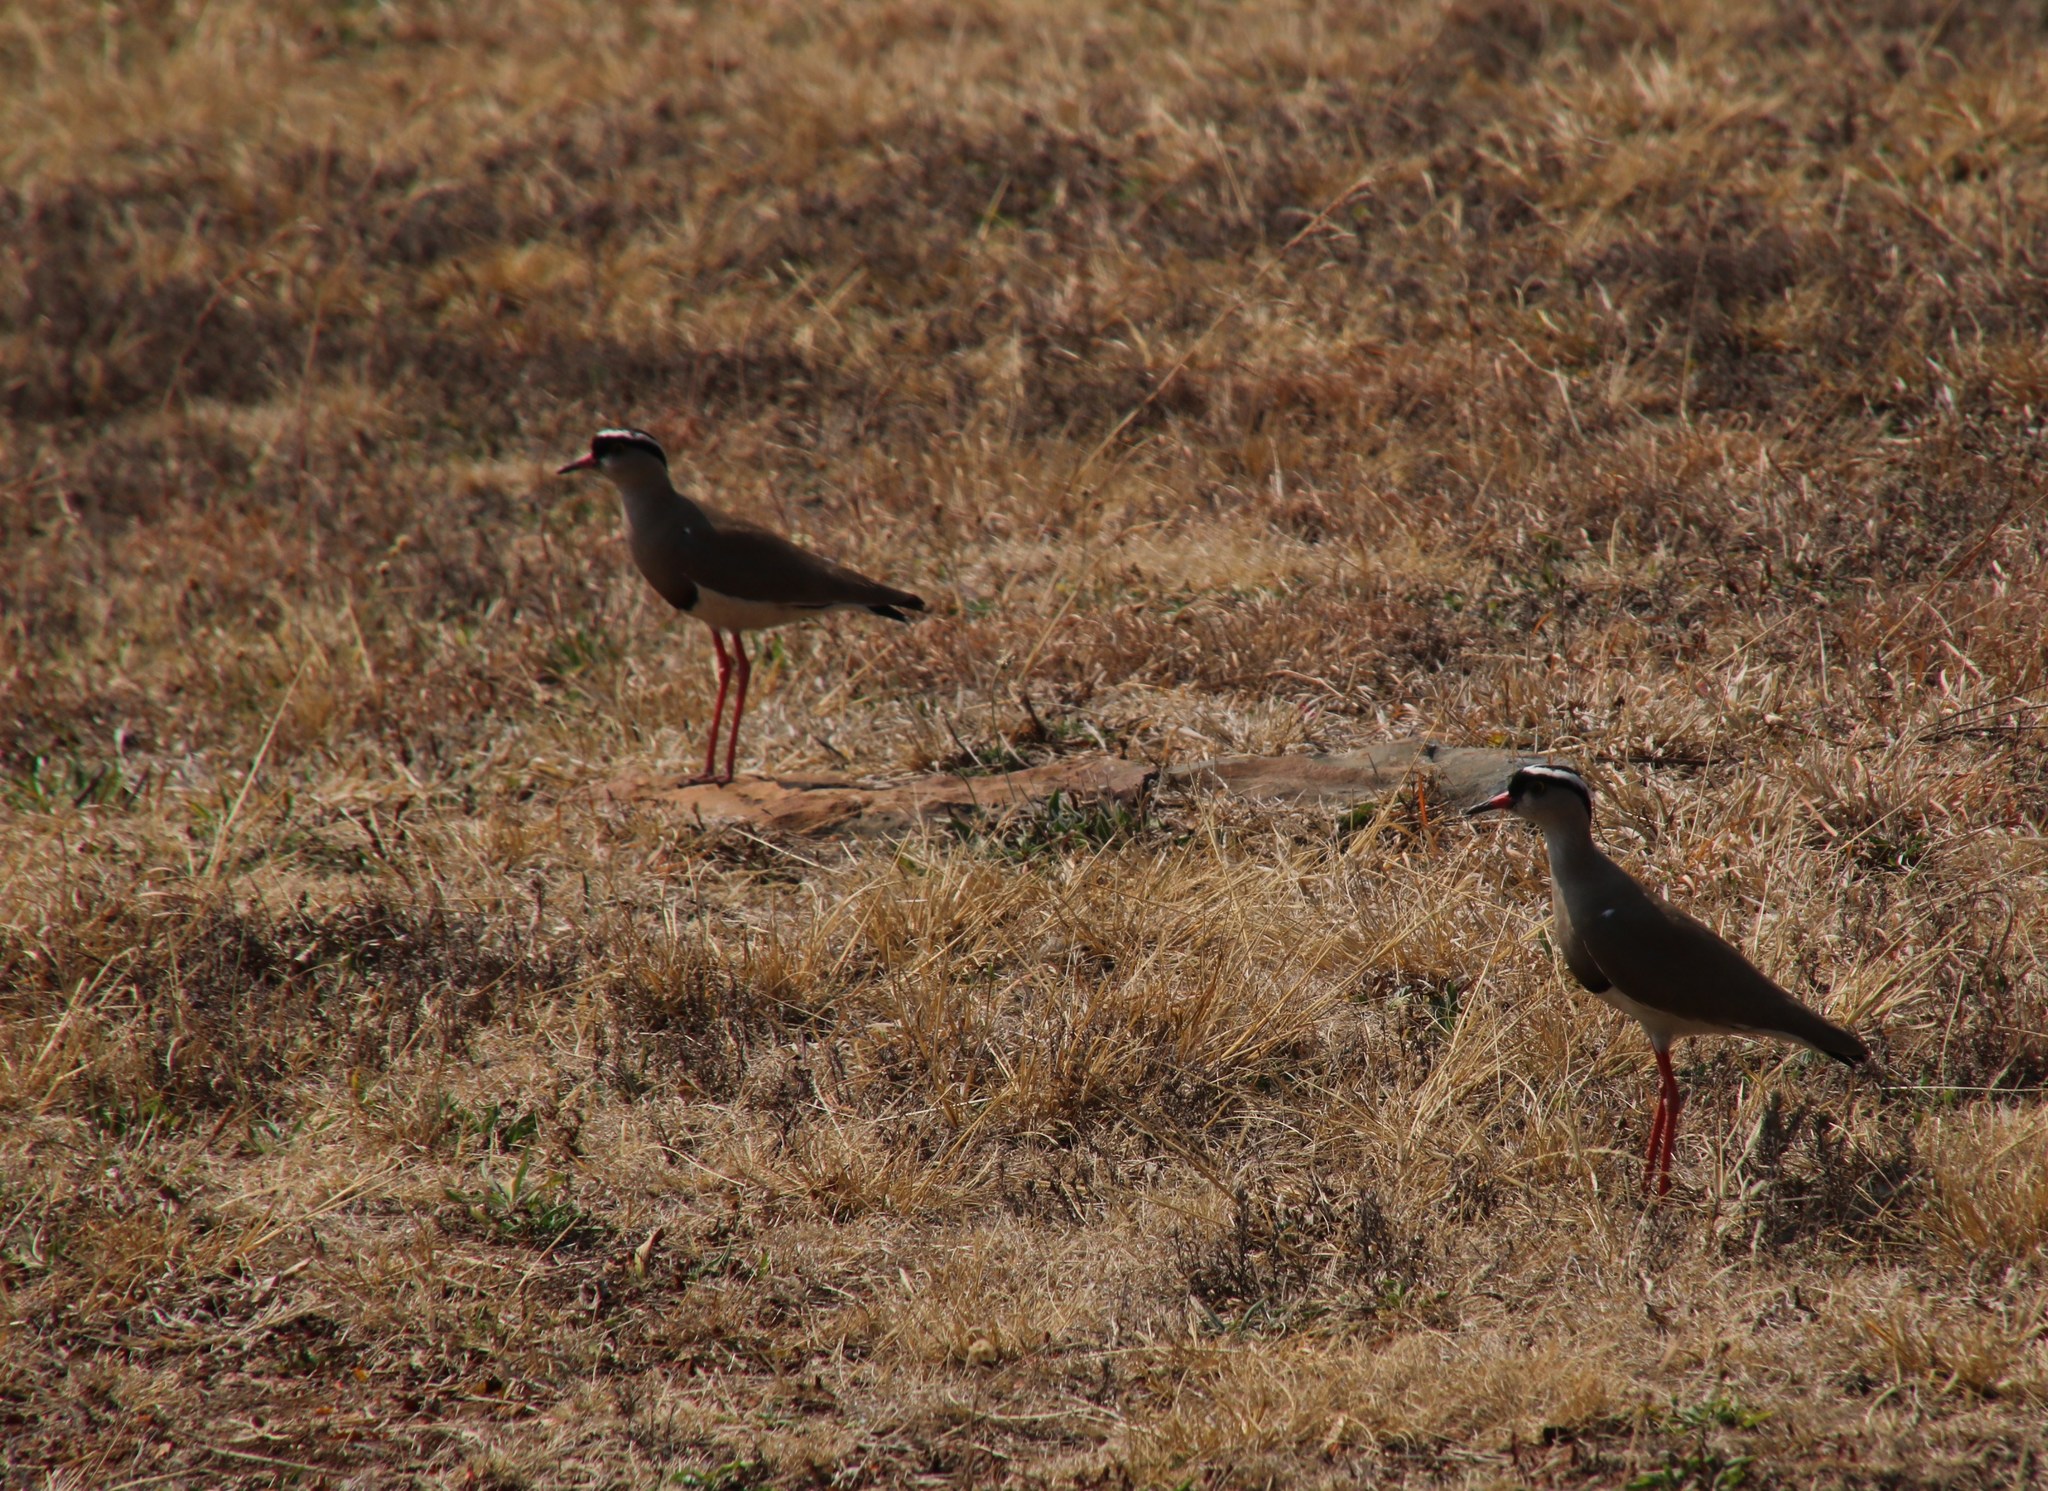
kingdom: Animalia
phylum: Chordata
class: Aves
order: Charadriiformes
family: Charadriidae
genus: Vanellus
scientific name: Vanellus coronatus
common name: Crowned lapwing
